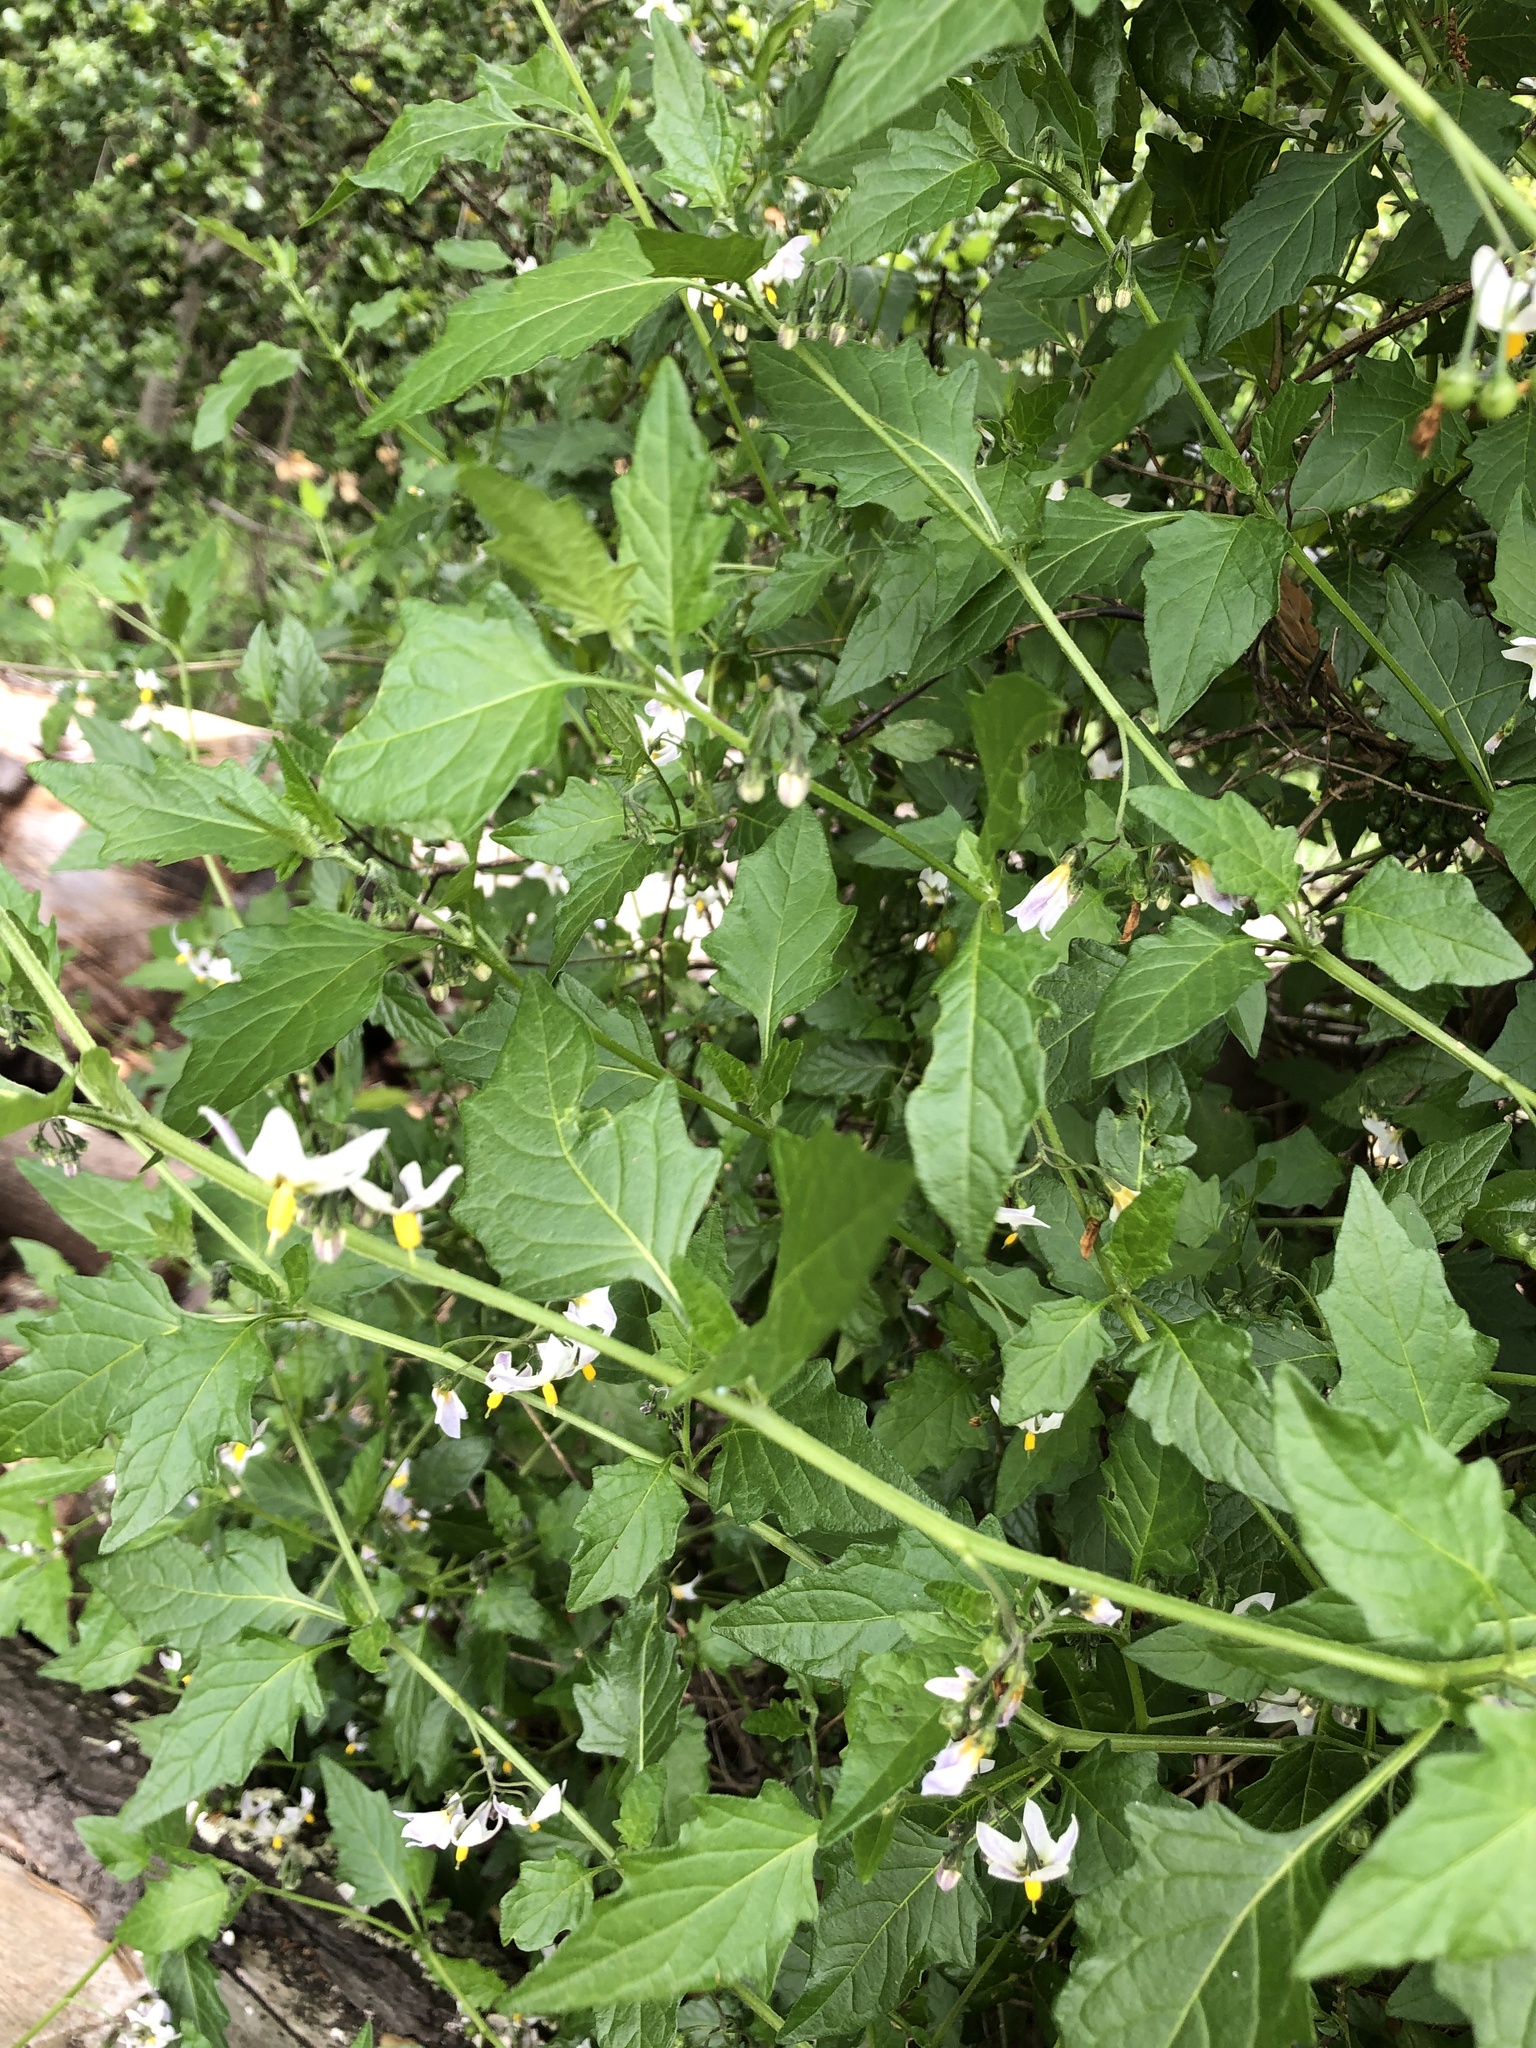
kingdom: Plantae
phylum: Tracheophyta
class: Magnoliopsida
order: Solanales
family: Solanaceae
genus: Solanum
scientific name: Solanum furcatum
